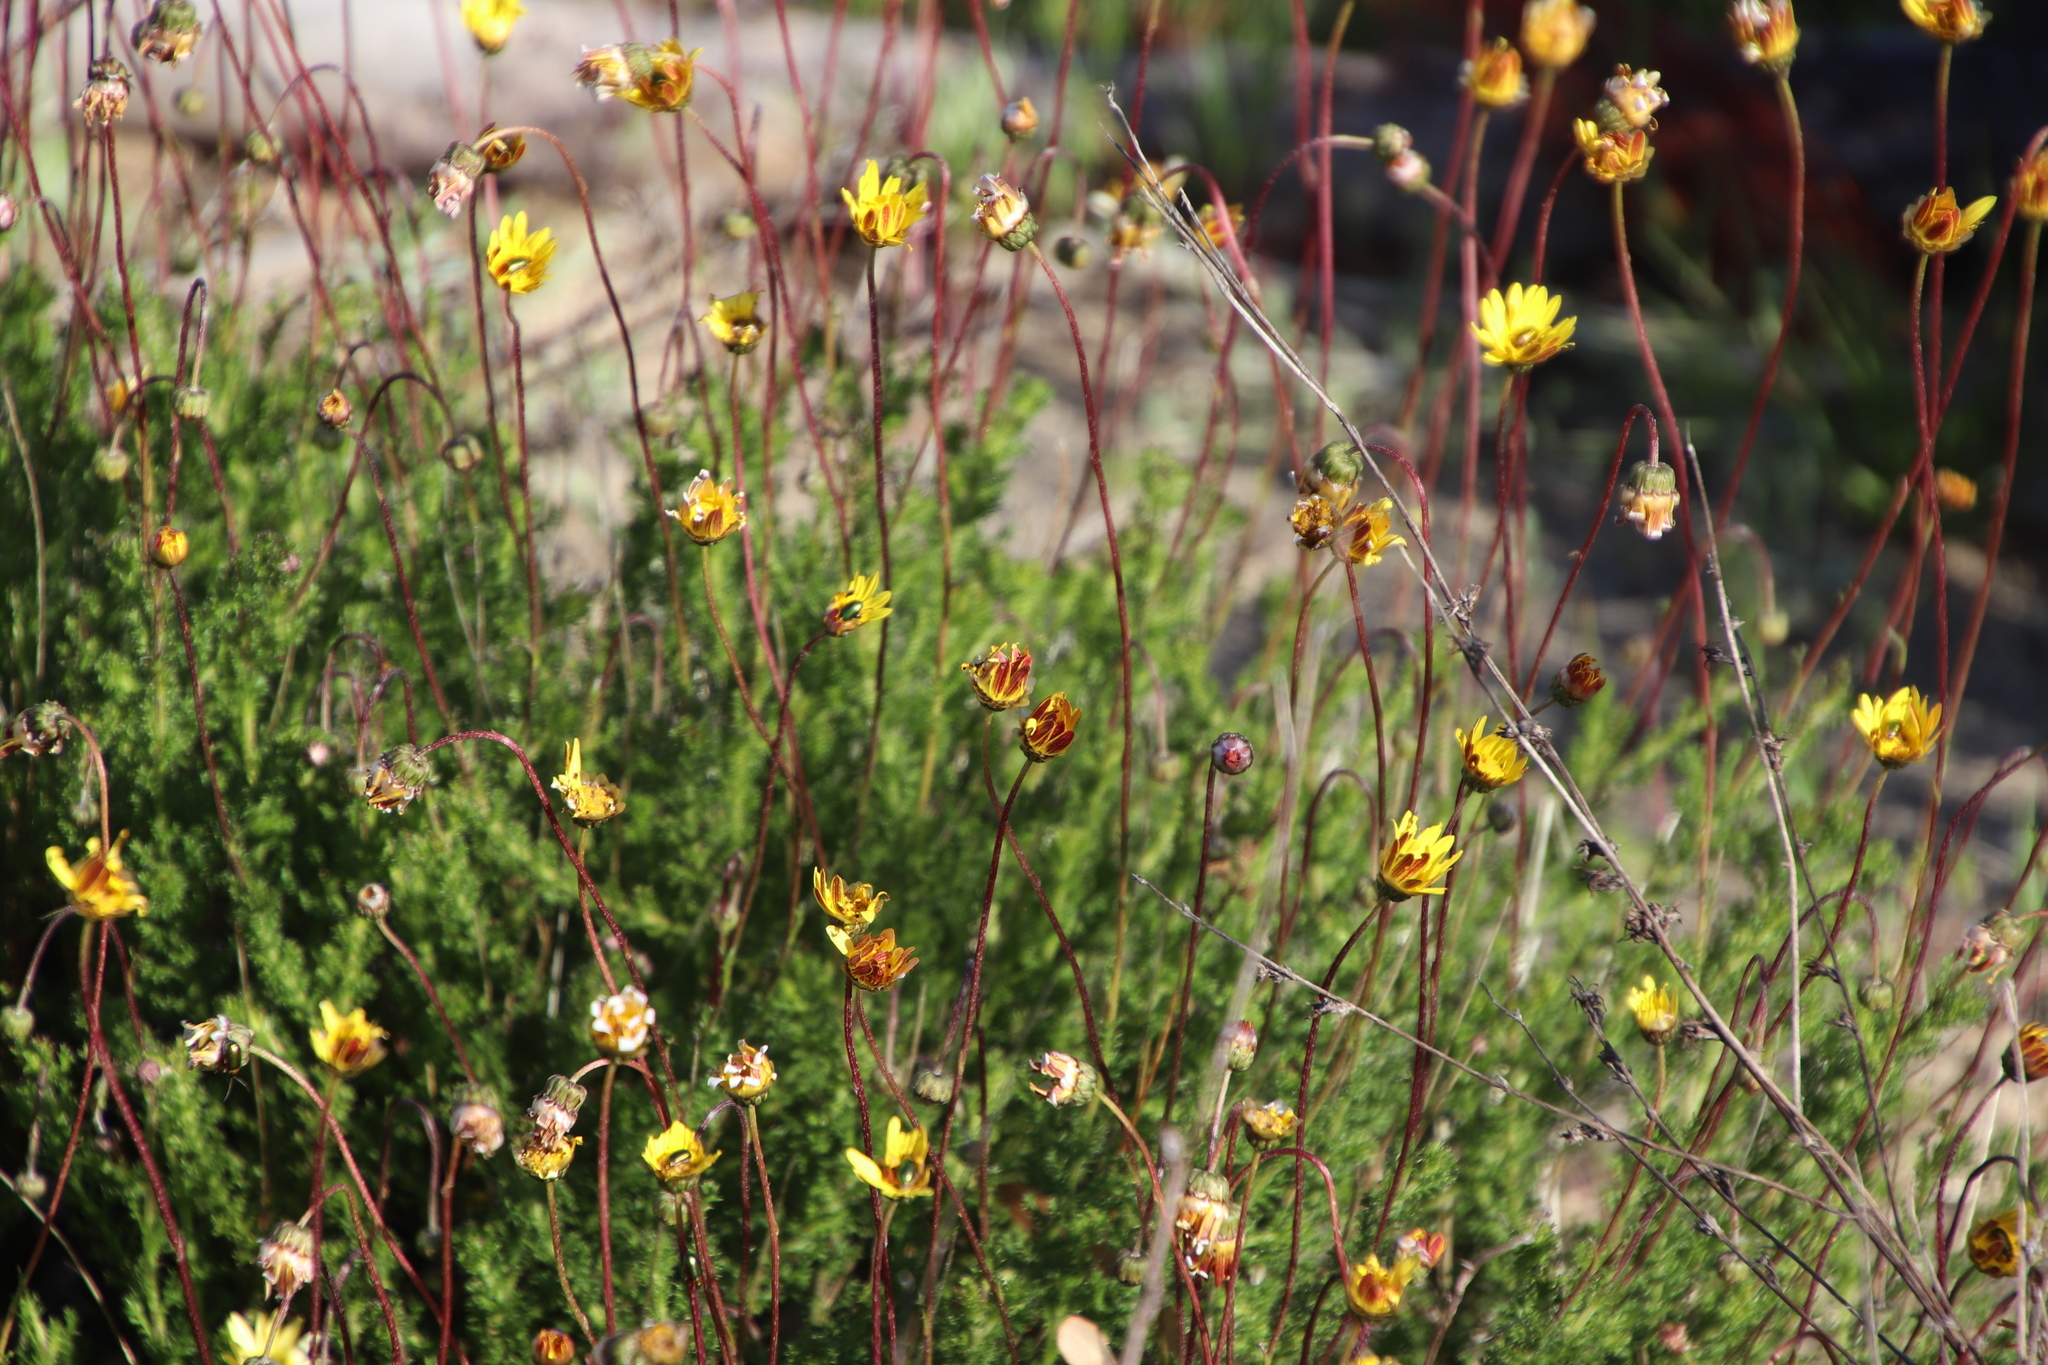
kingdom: Plantae
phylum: Tracheophyta
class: Magnoliopsida
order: Asterales
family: Asteraceae
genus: Ursinia
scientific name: Ursinia dentata
